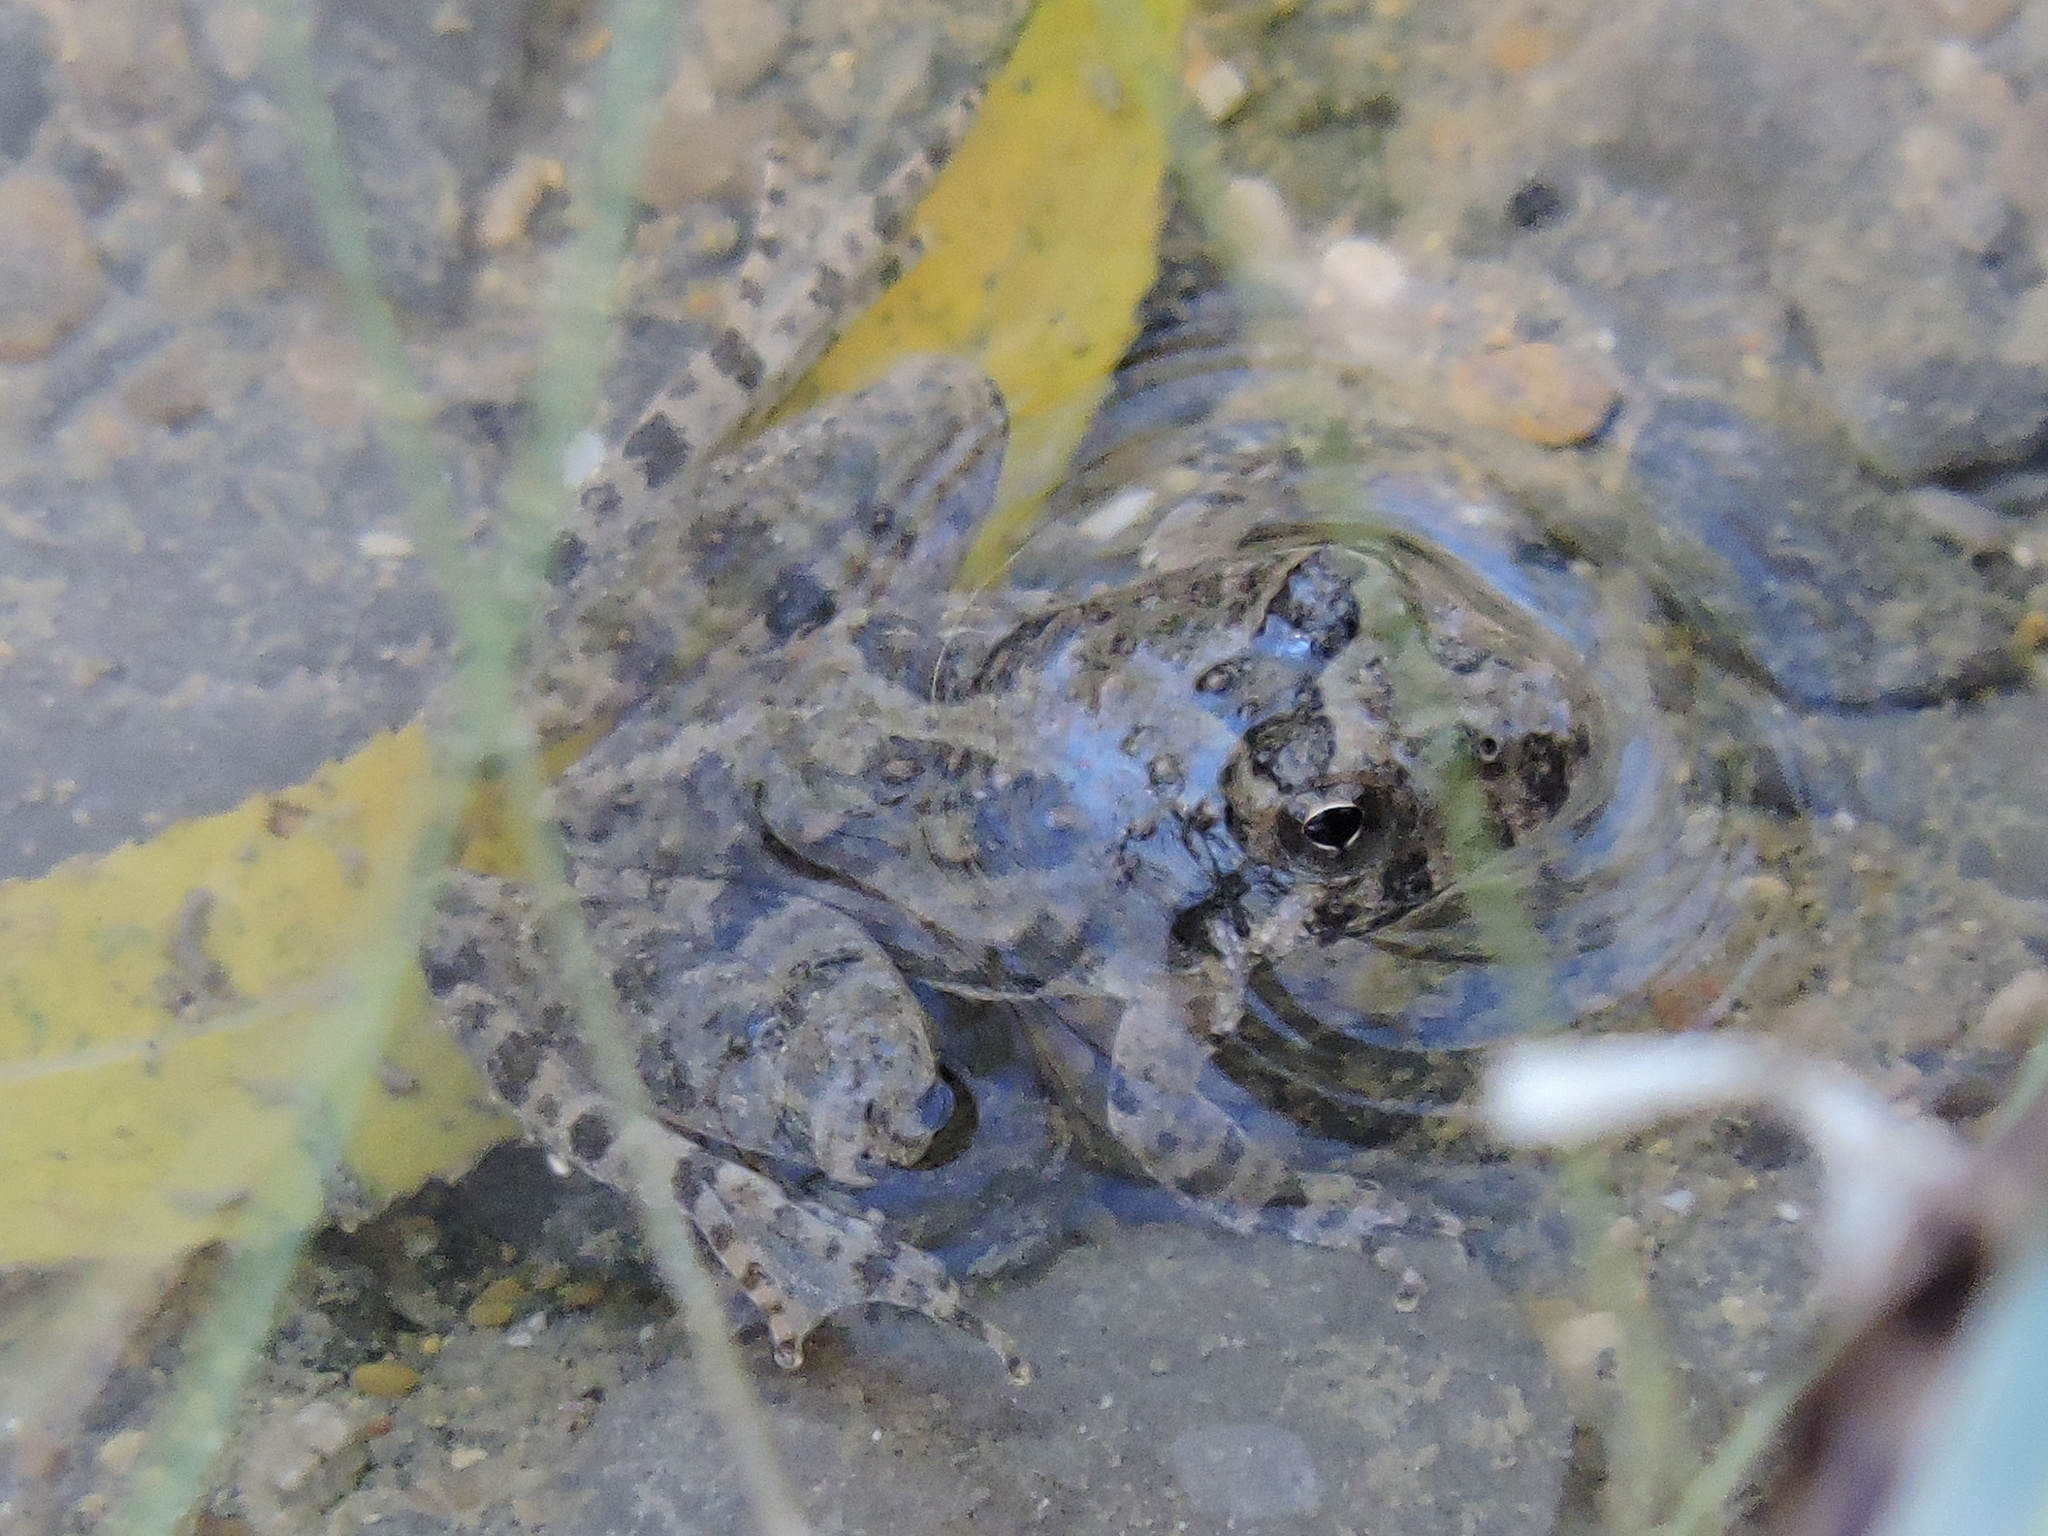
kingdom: Animalia
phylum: Chordata
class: Amphibia
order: Anura
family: Hylidae
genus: Acris
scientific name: Acris blanchardi
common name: Blanchard's cricket frog
